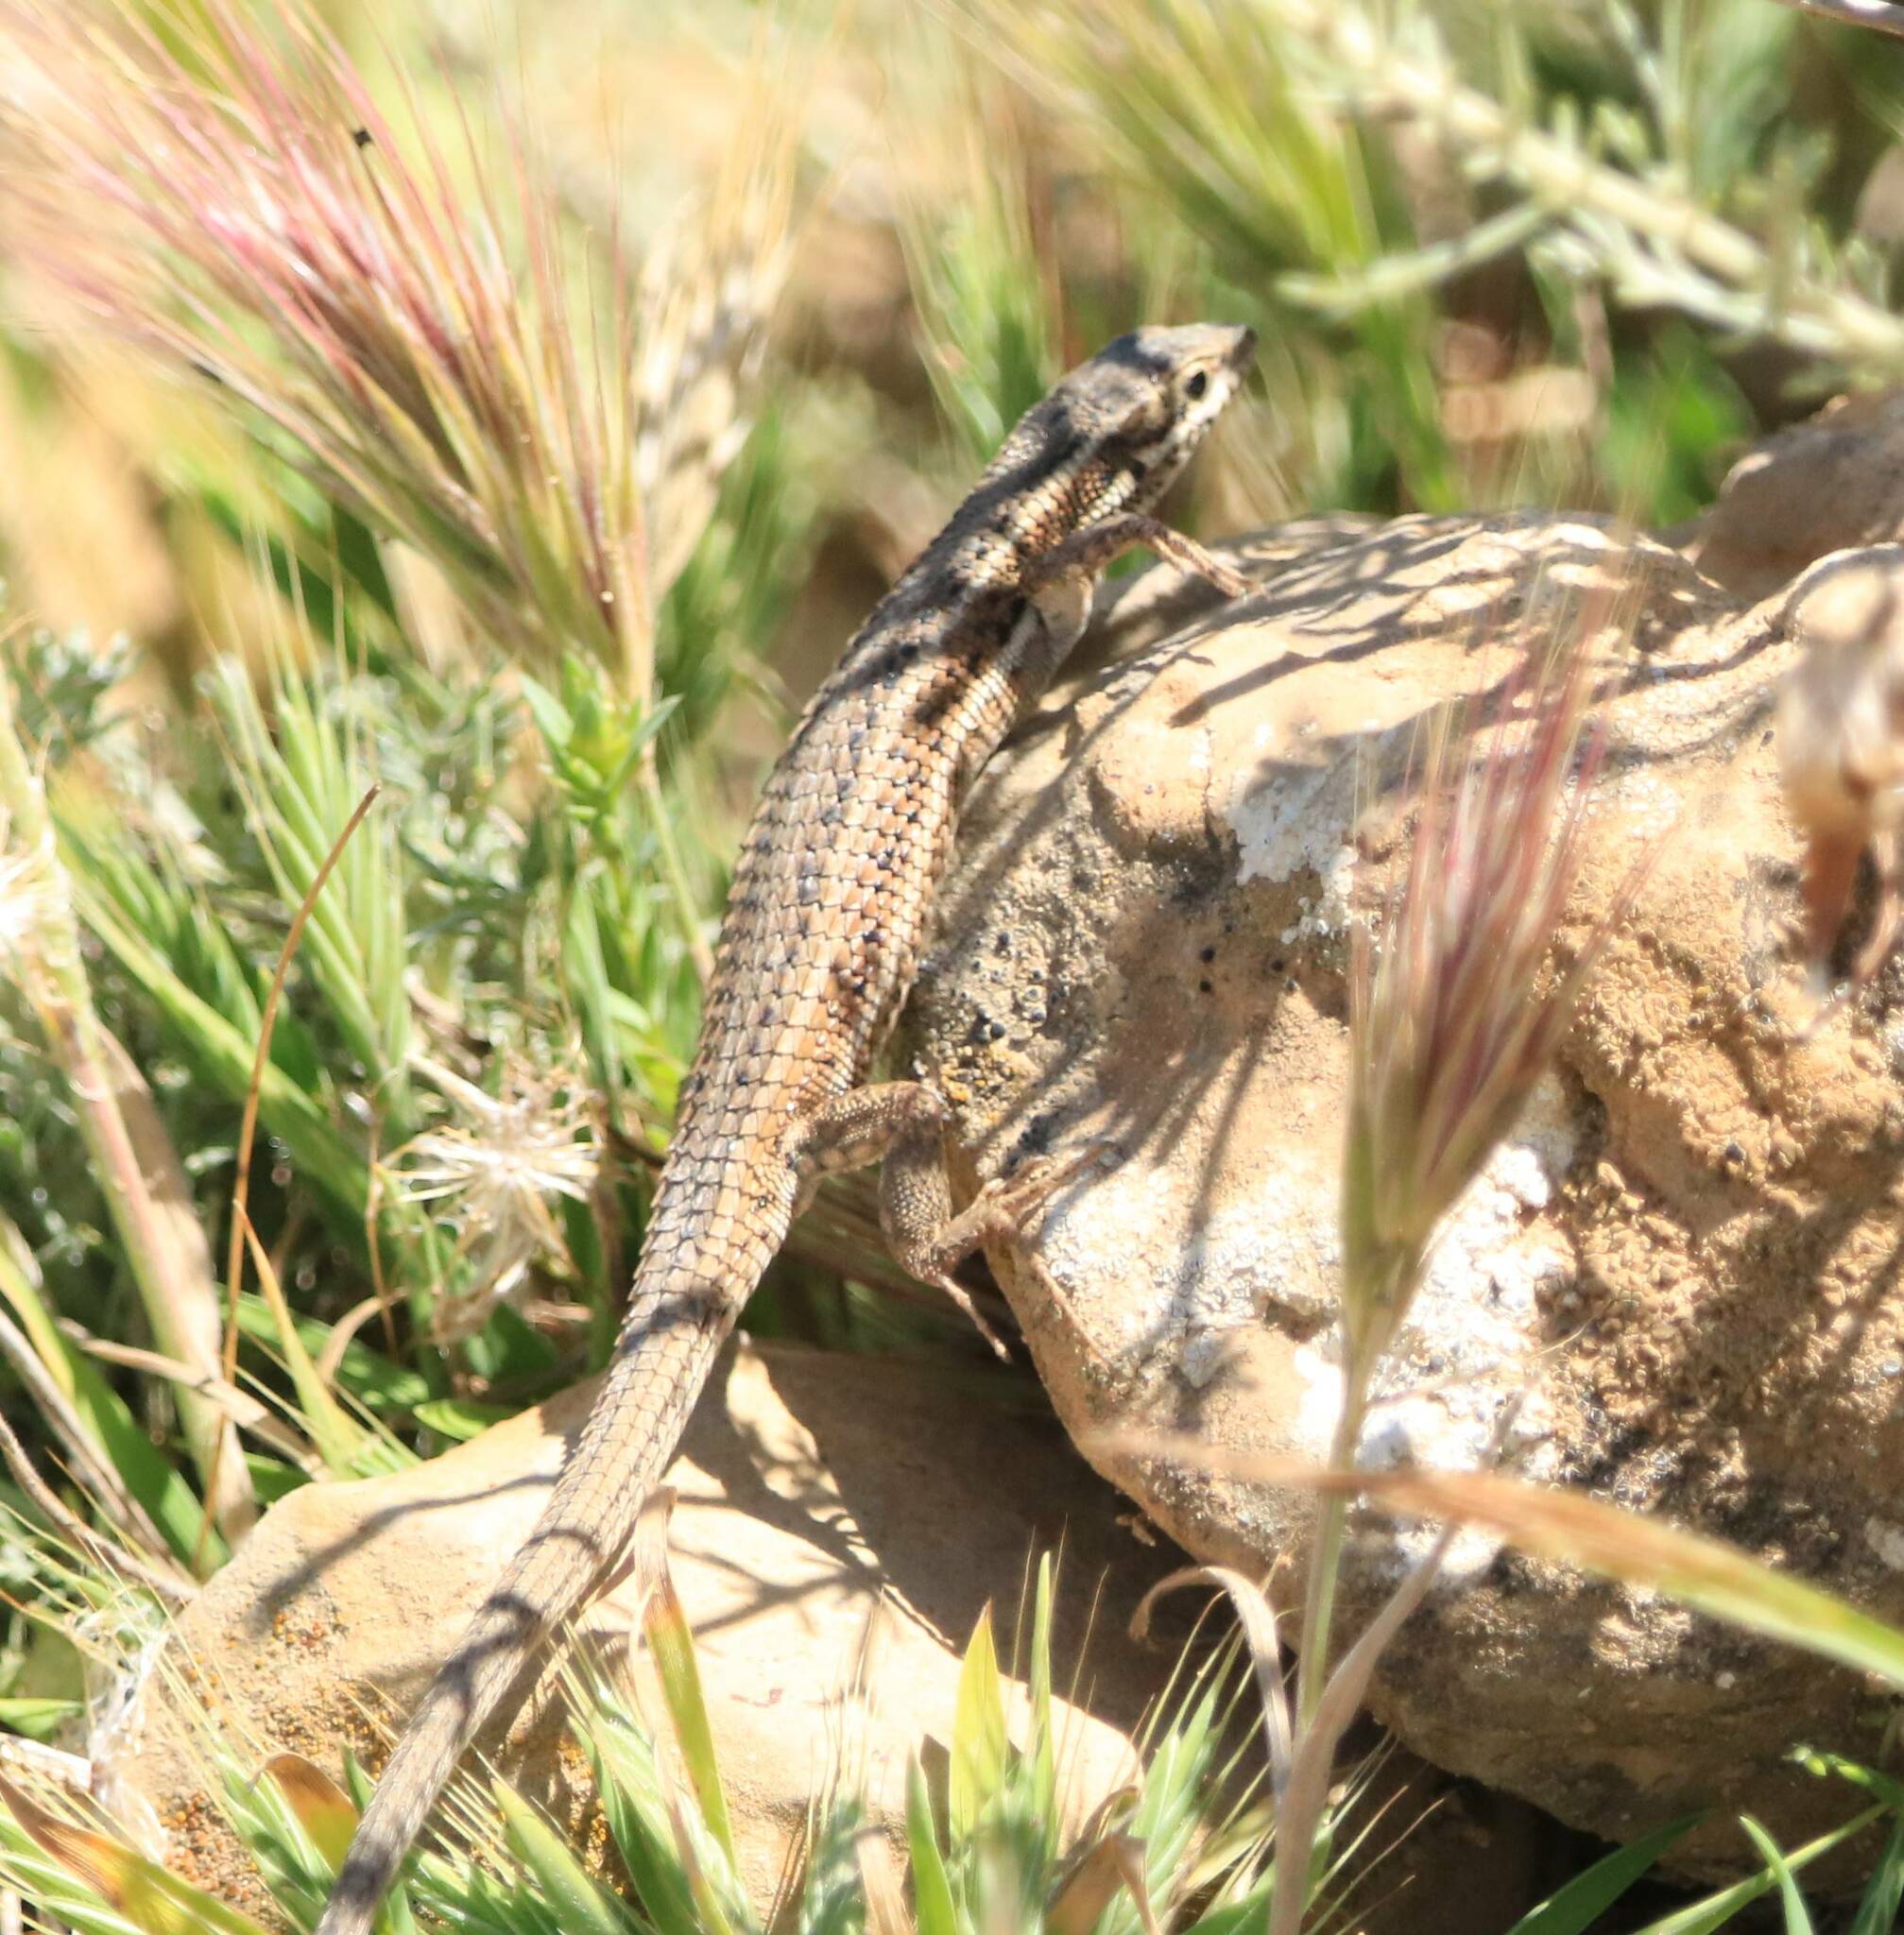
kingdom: Animalia
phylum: Chordata
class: Squamata
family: Lacertidae
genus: Ophisops
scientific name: Ophisops occidentalis
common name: Western snake-eyed lizard
